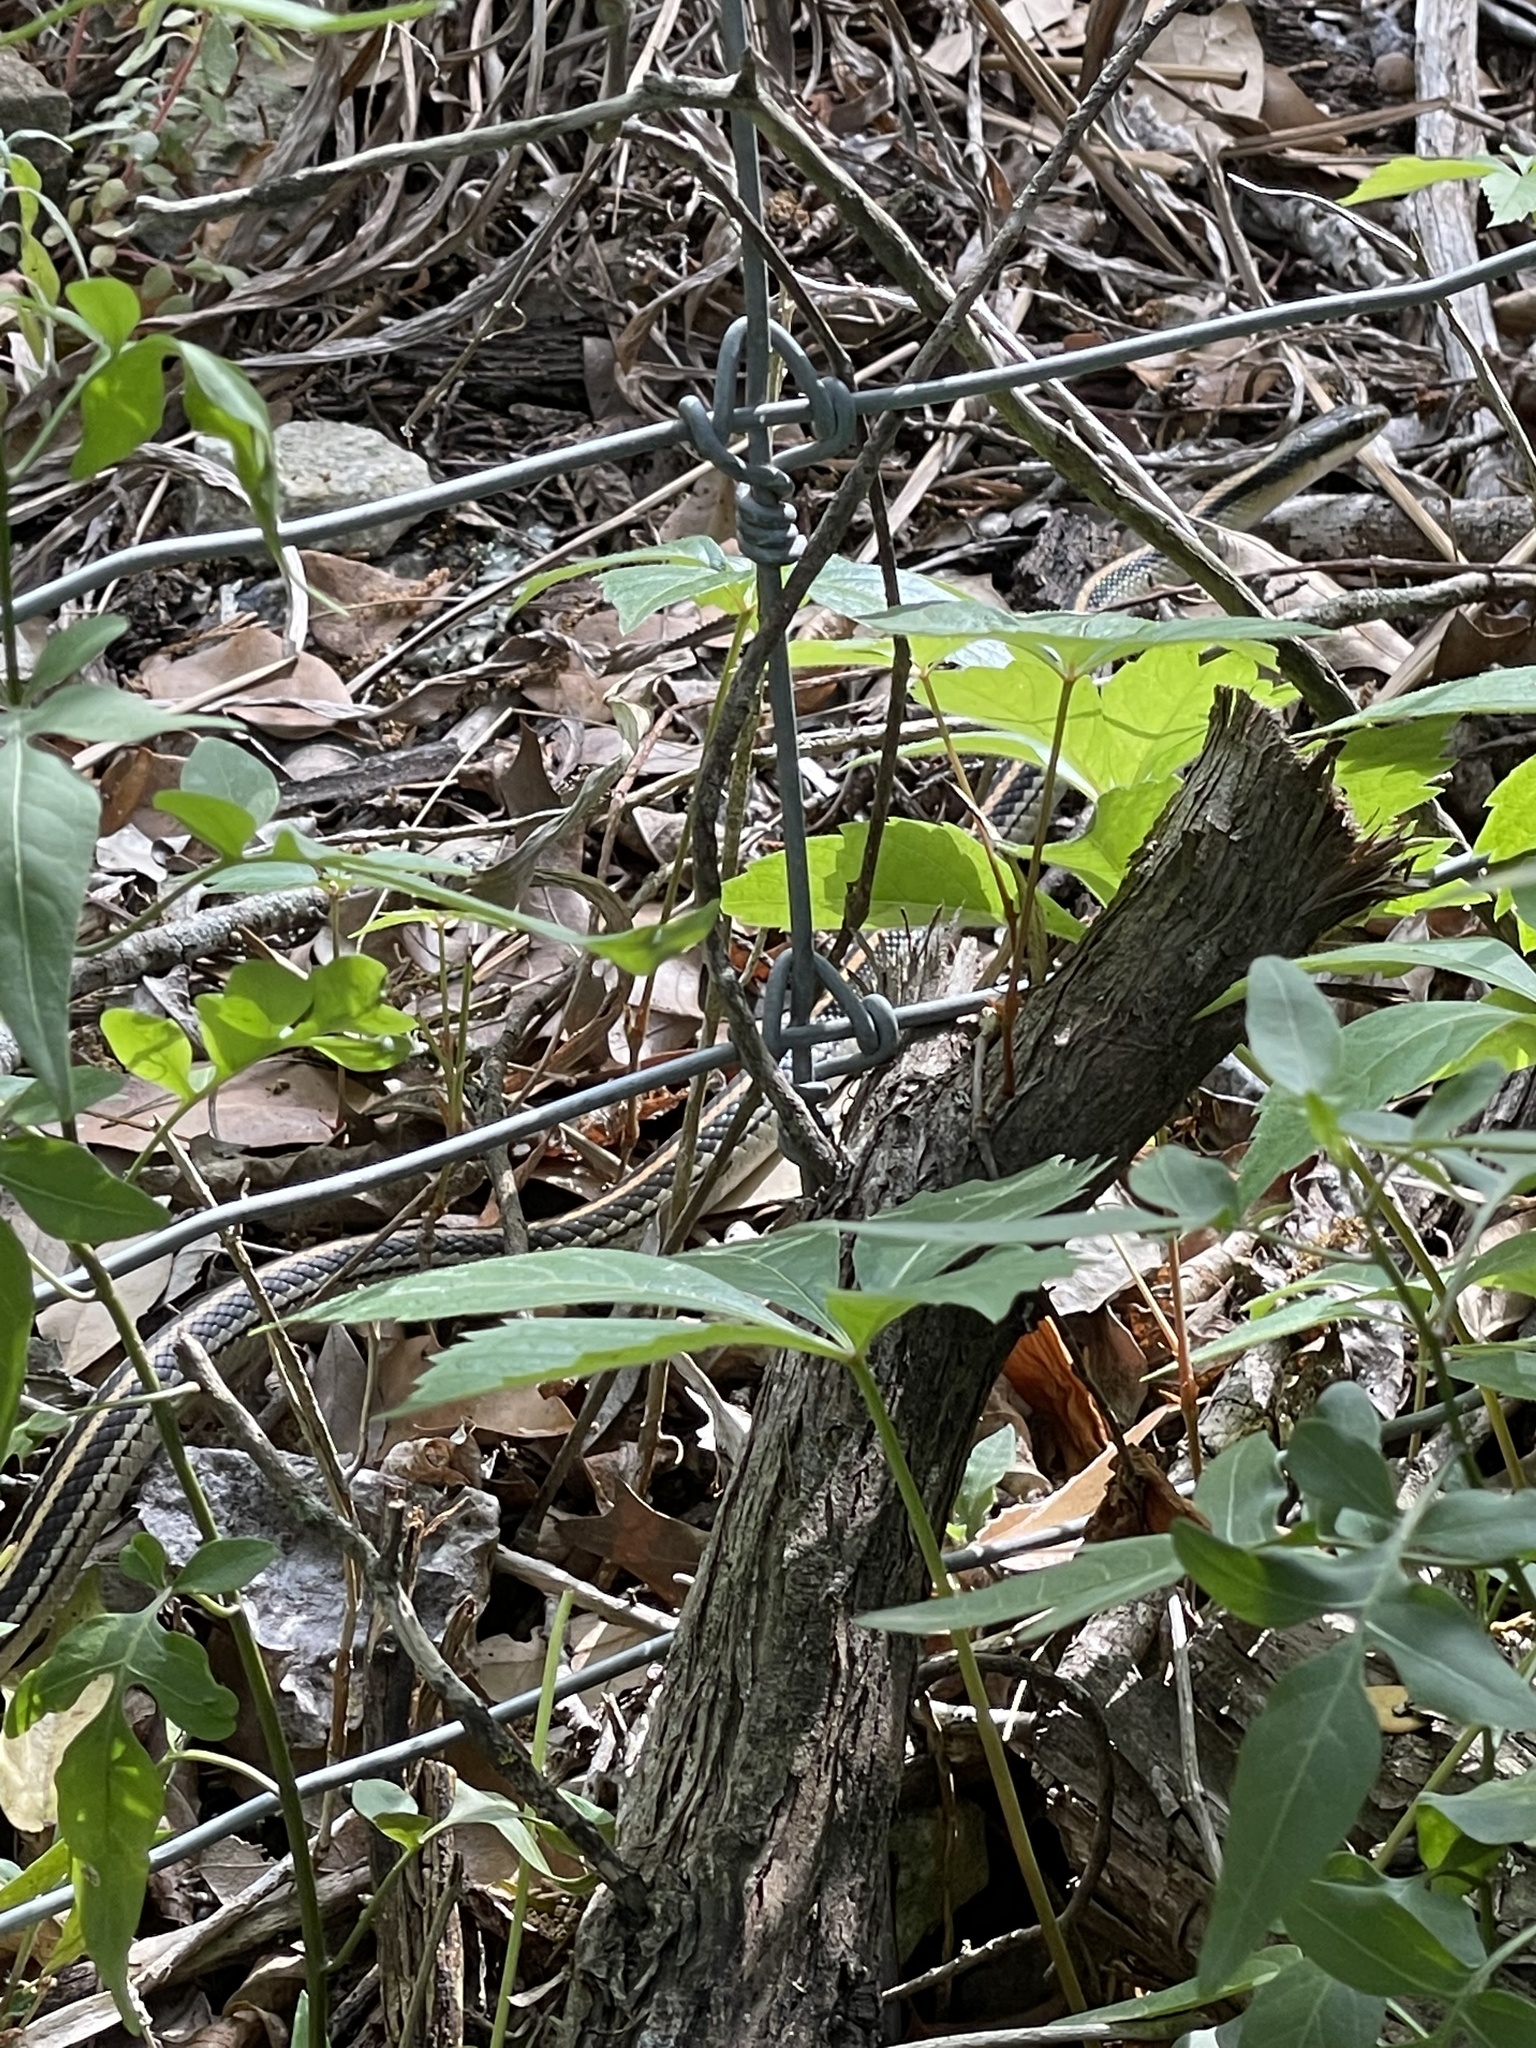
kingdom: Animalia
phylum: Chordata
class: Squamata
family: Colubridae
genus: Salvadora
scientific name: Salvadora lineata
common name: Texas patchnose snake
